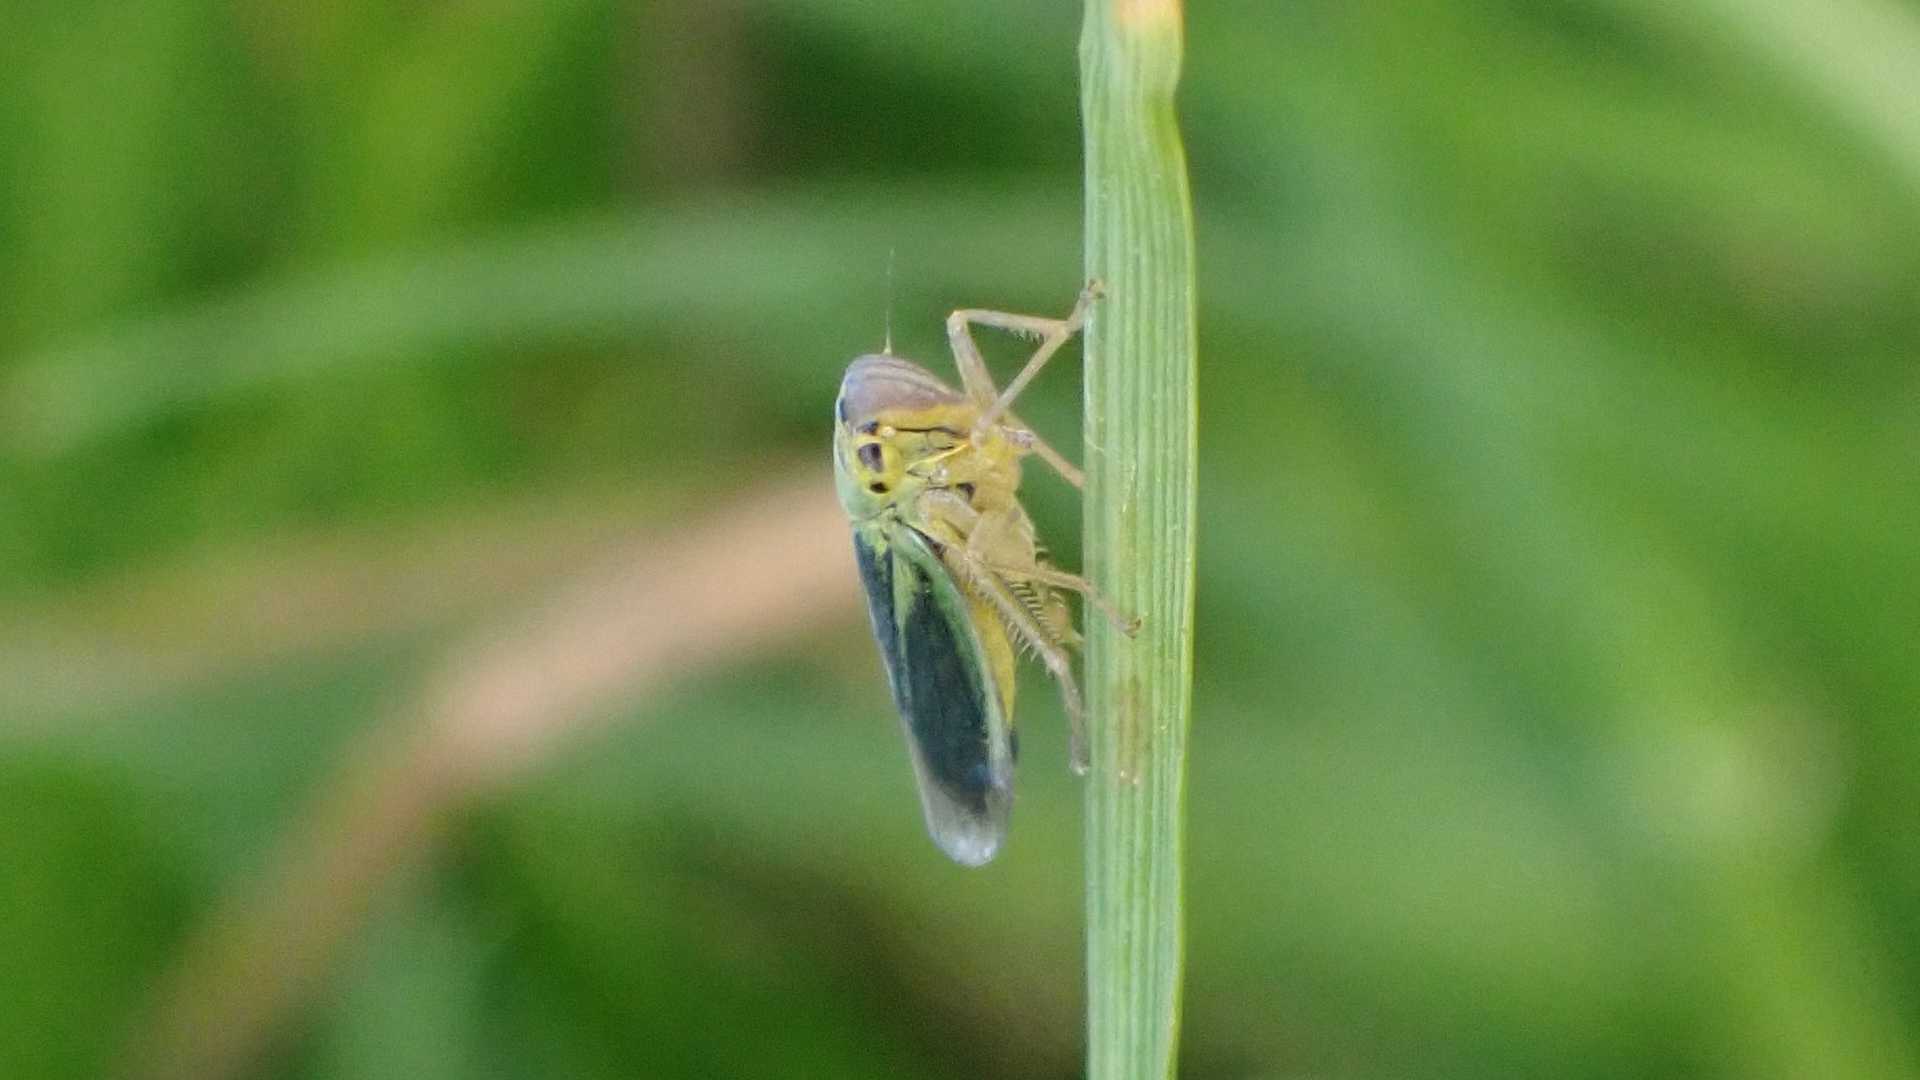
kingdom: Animalia
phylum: Arthropoda
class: Insecta
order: Hemiptera
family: Cicadellidae
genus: Cicadella
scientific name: Cicadella viridis
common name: Leafhopper
